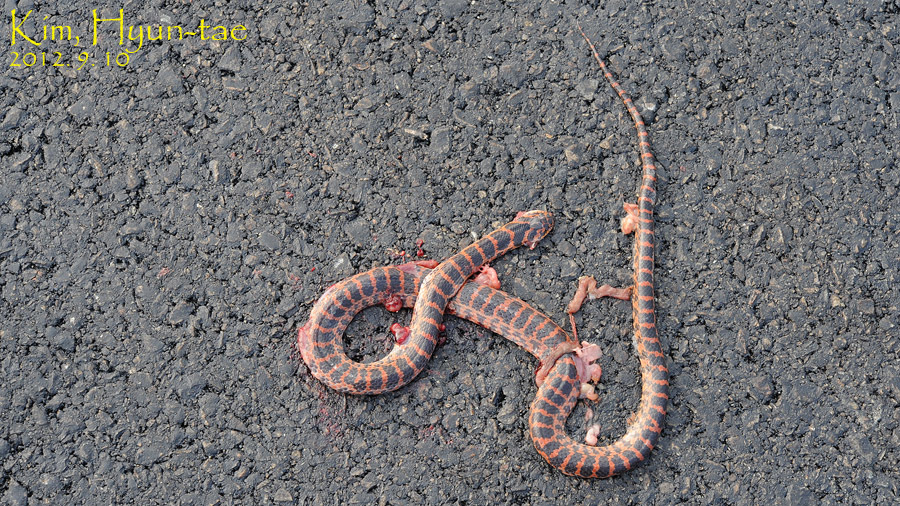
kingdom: Animalia
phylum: Chordata
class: Squamata
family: Colubridae
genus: Lycodon
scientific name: Lycodon rufozonatus
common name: Red-banded snake
